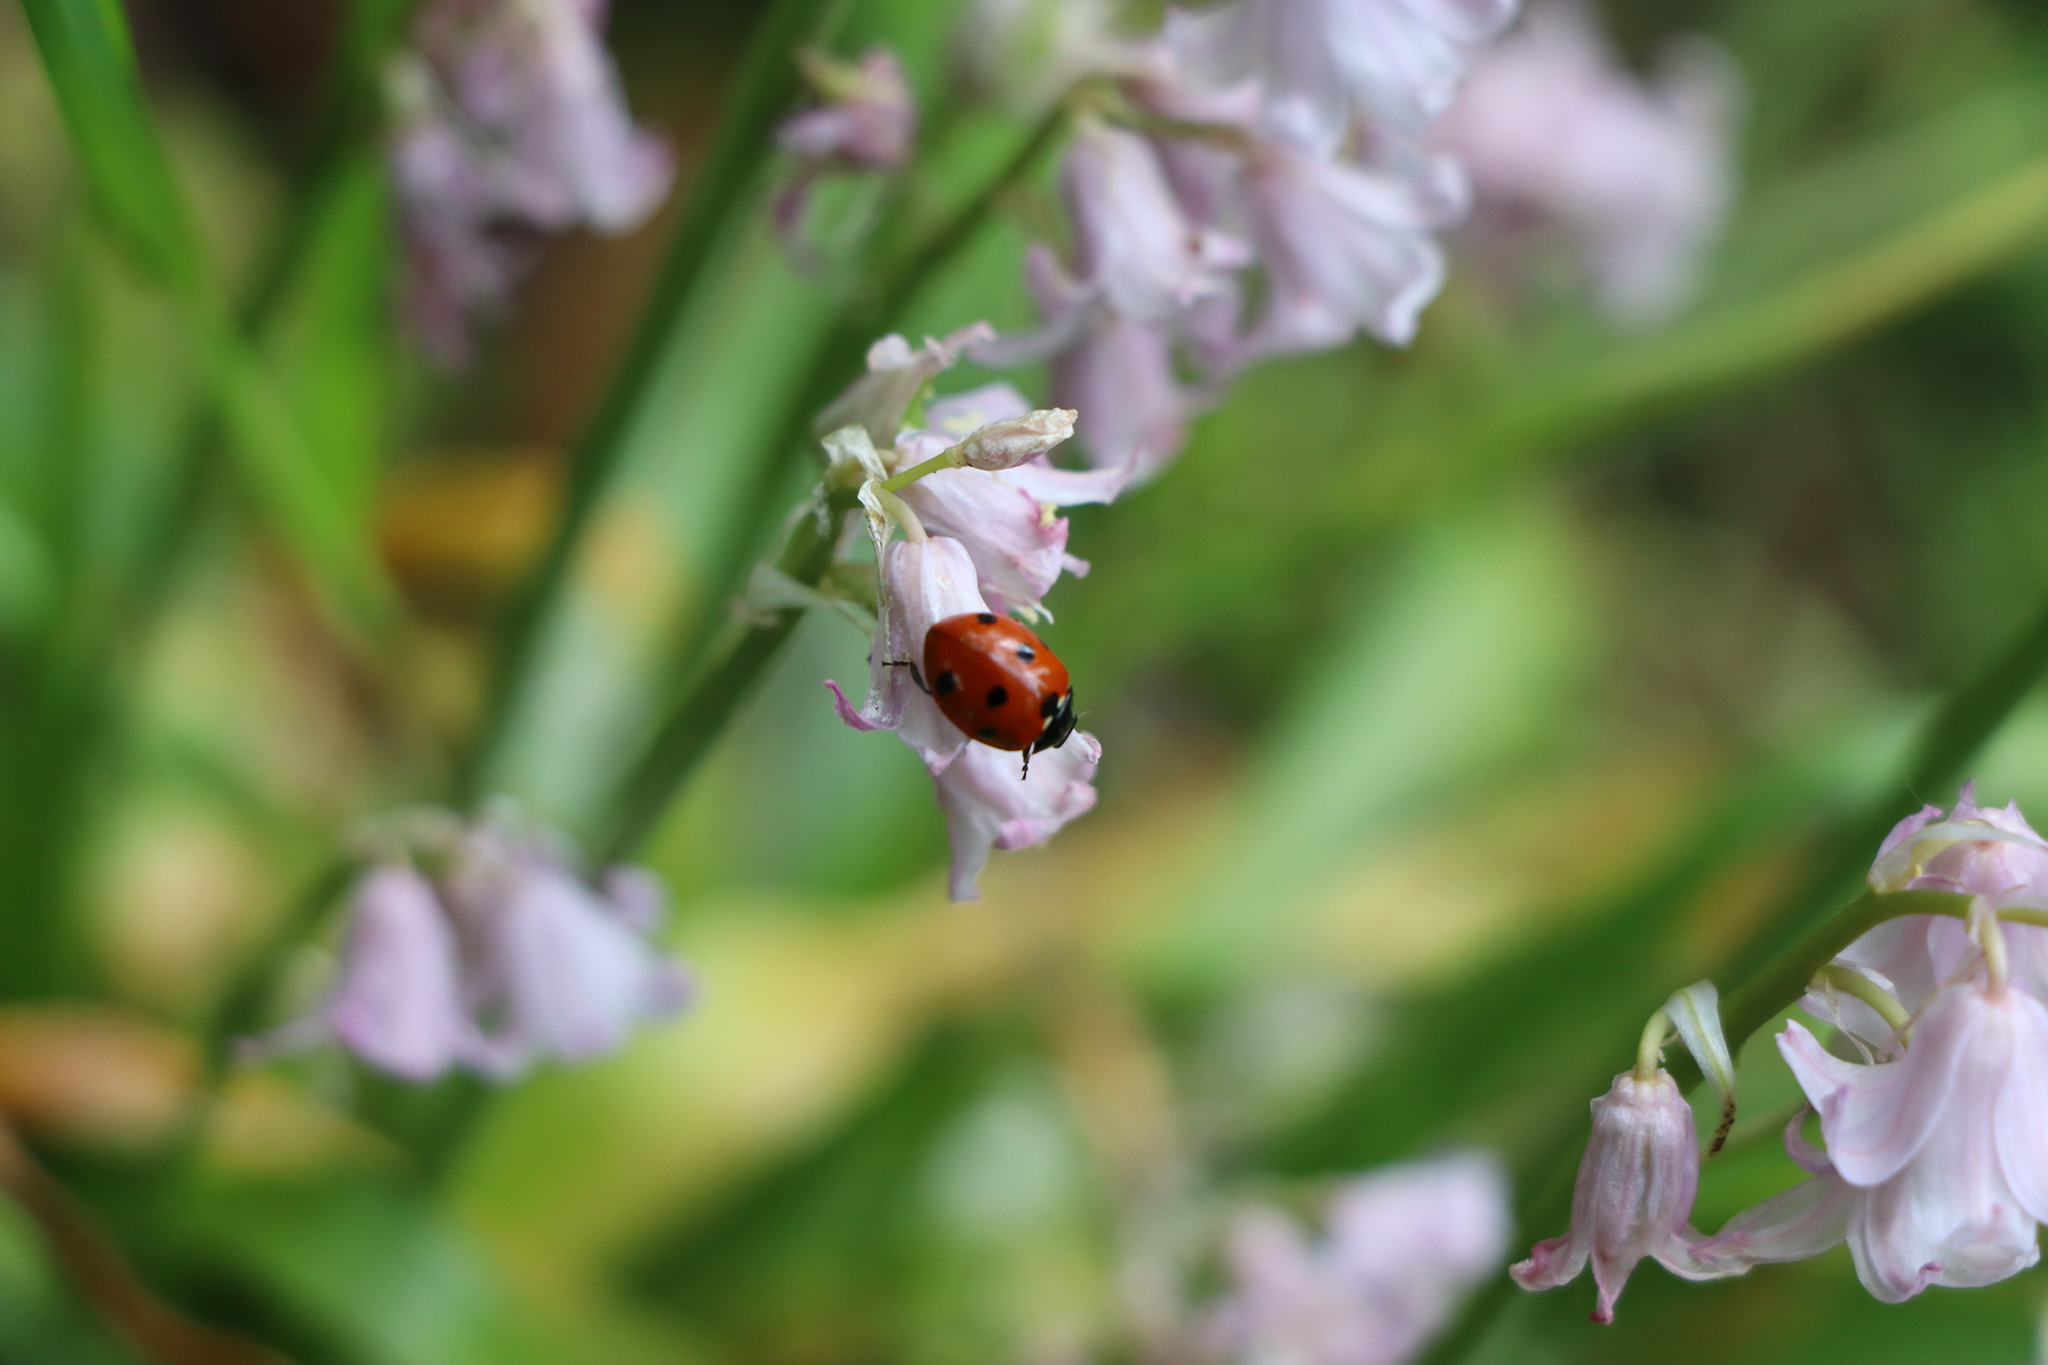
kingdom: Animalia
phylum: Arthropoda
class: Insecta
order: Coleoptera
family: Coccinellidae
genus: Coccinella
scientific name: Coccinella septempunctata
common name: Sevenspotted lady beetle
